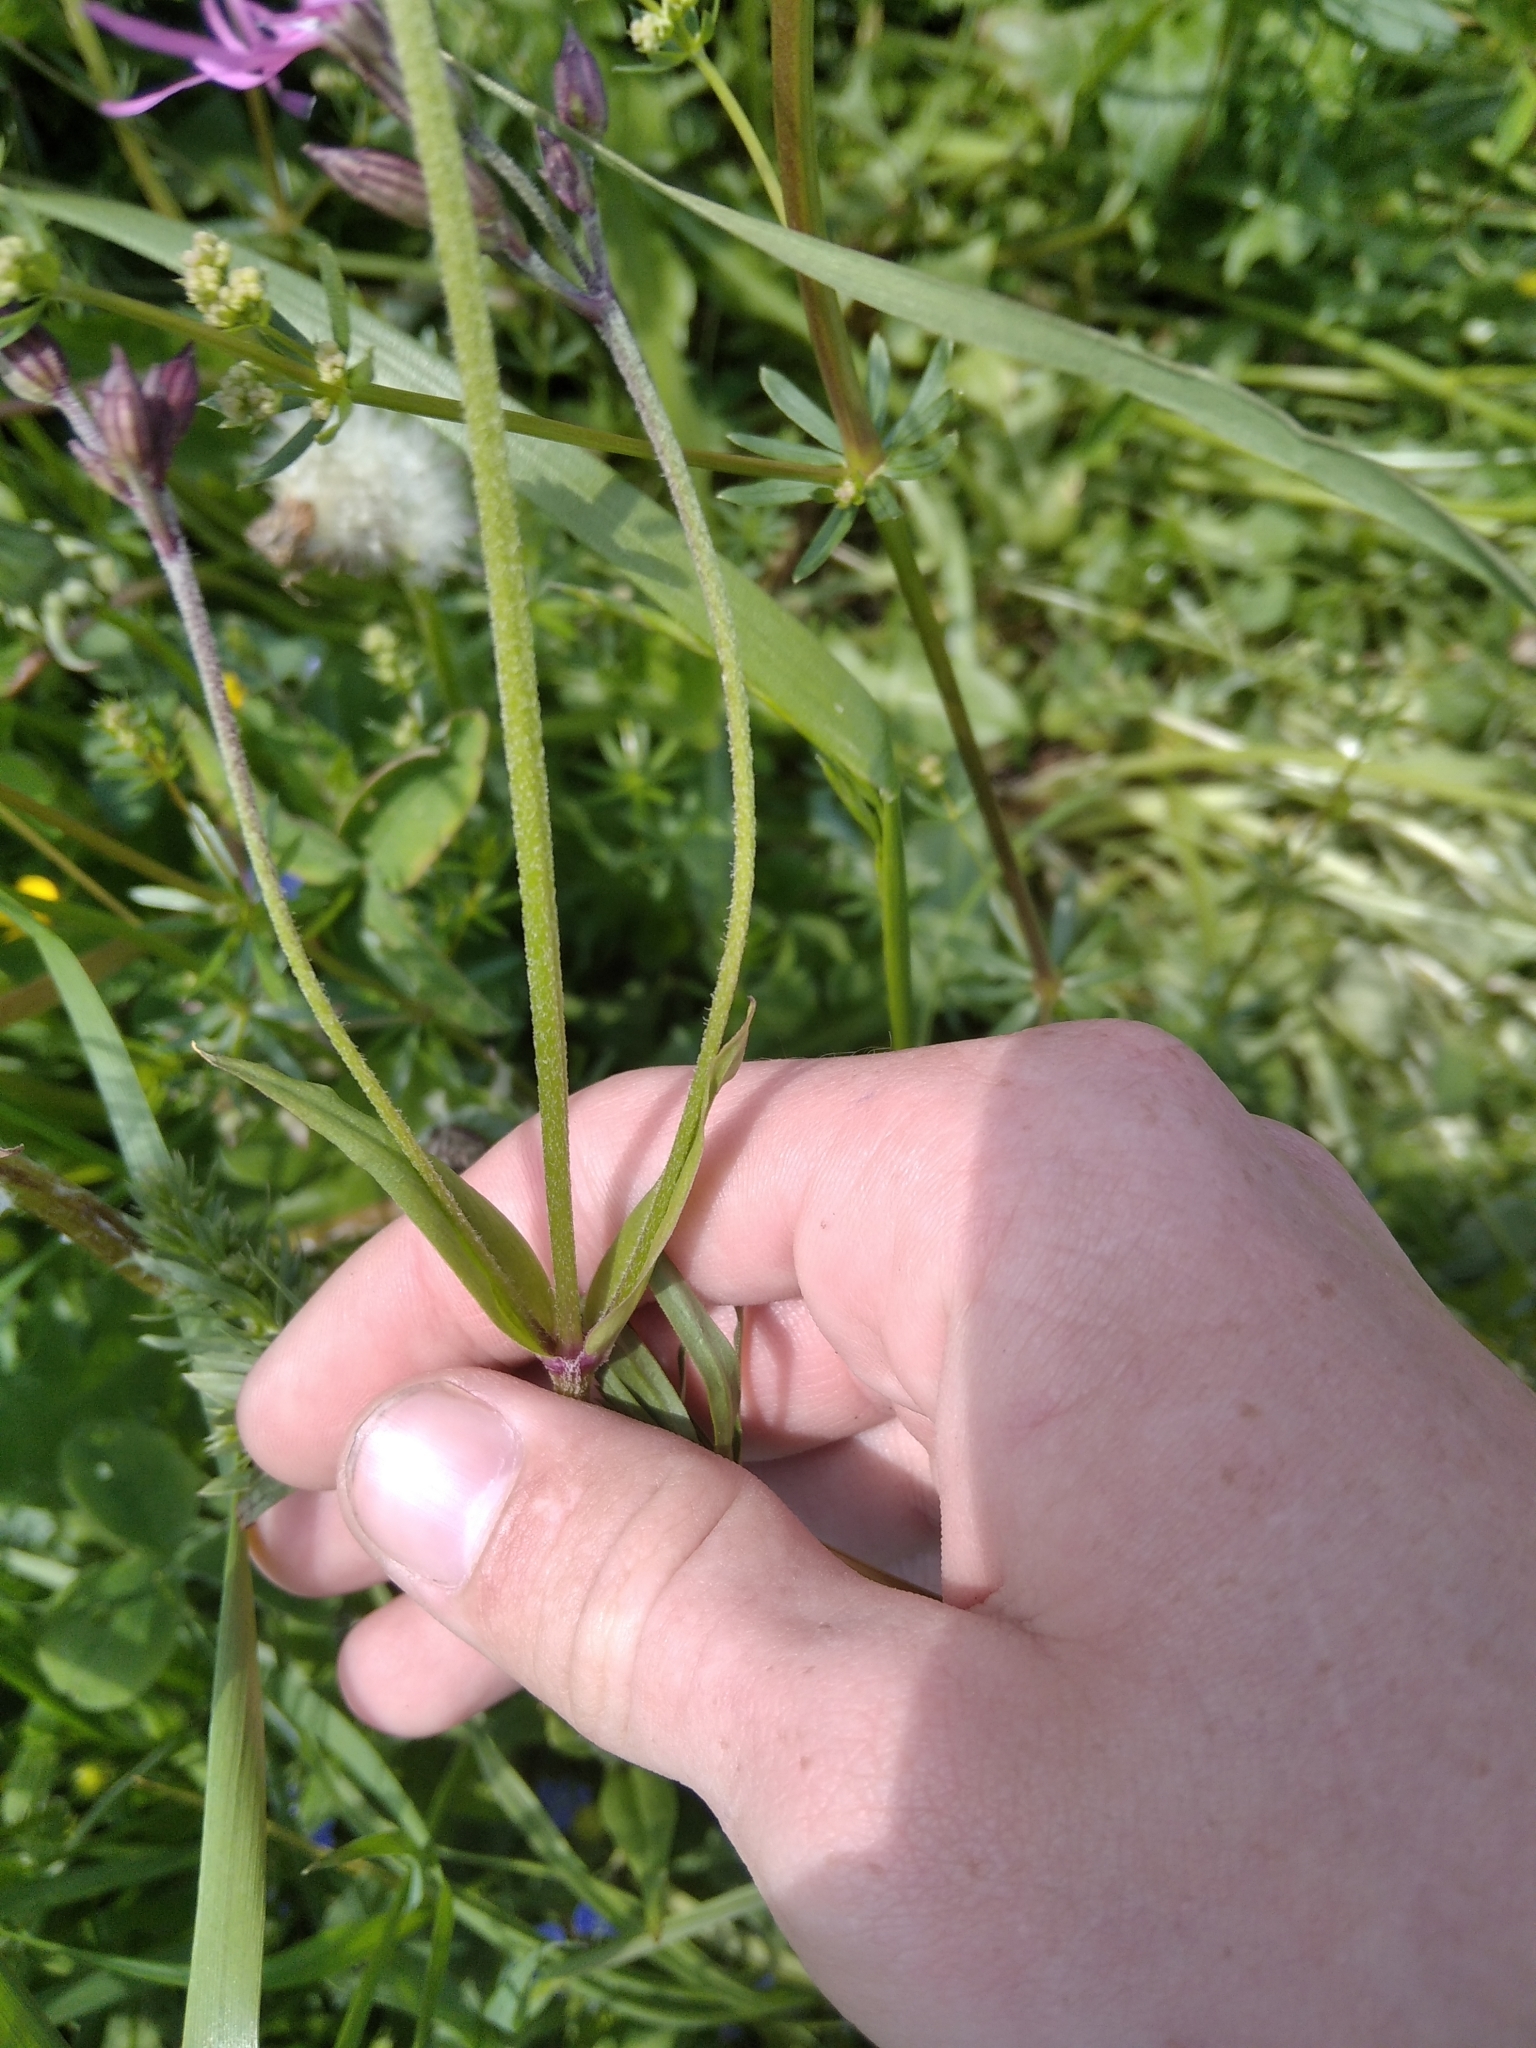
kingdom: Plantae
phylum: Tracheophyta
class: Magnoliopsida
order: Caryophyllales
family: Caryophyllaceae
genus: Silene
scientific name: Silene flos-cuculi
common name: Ragged-robin
